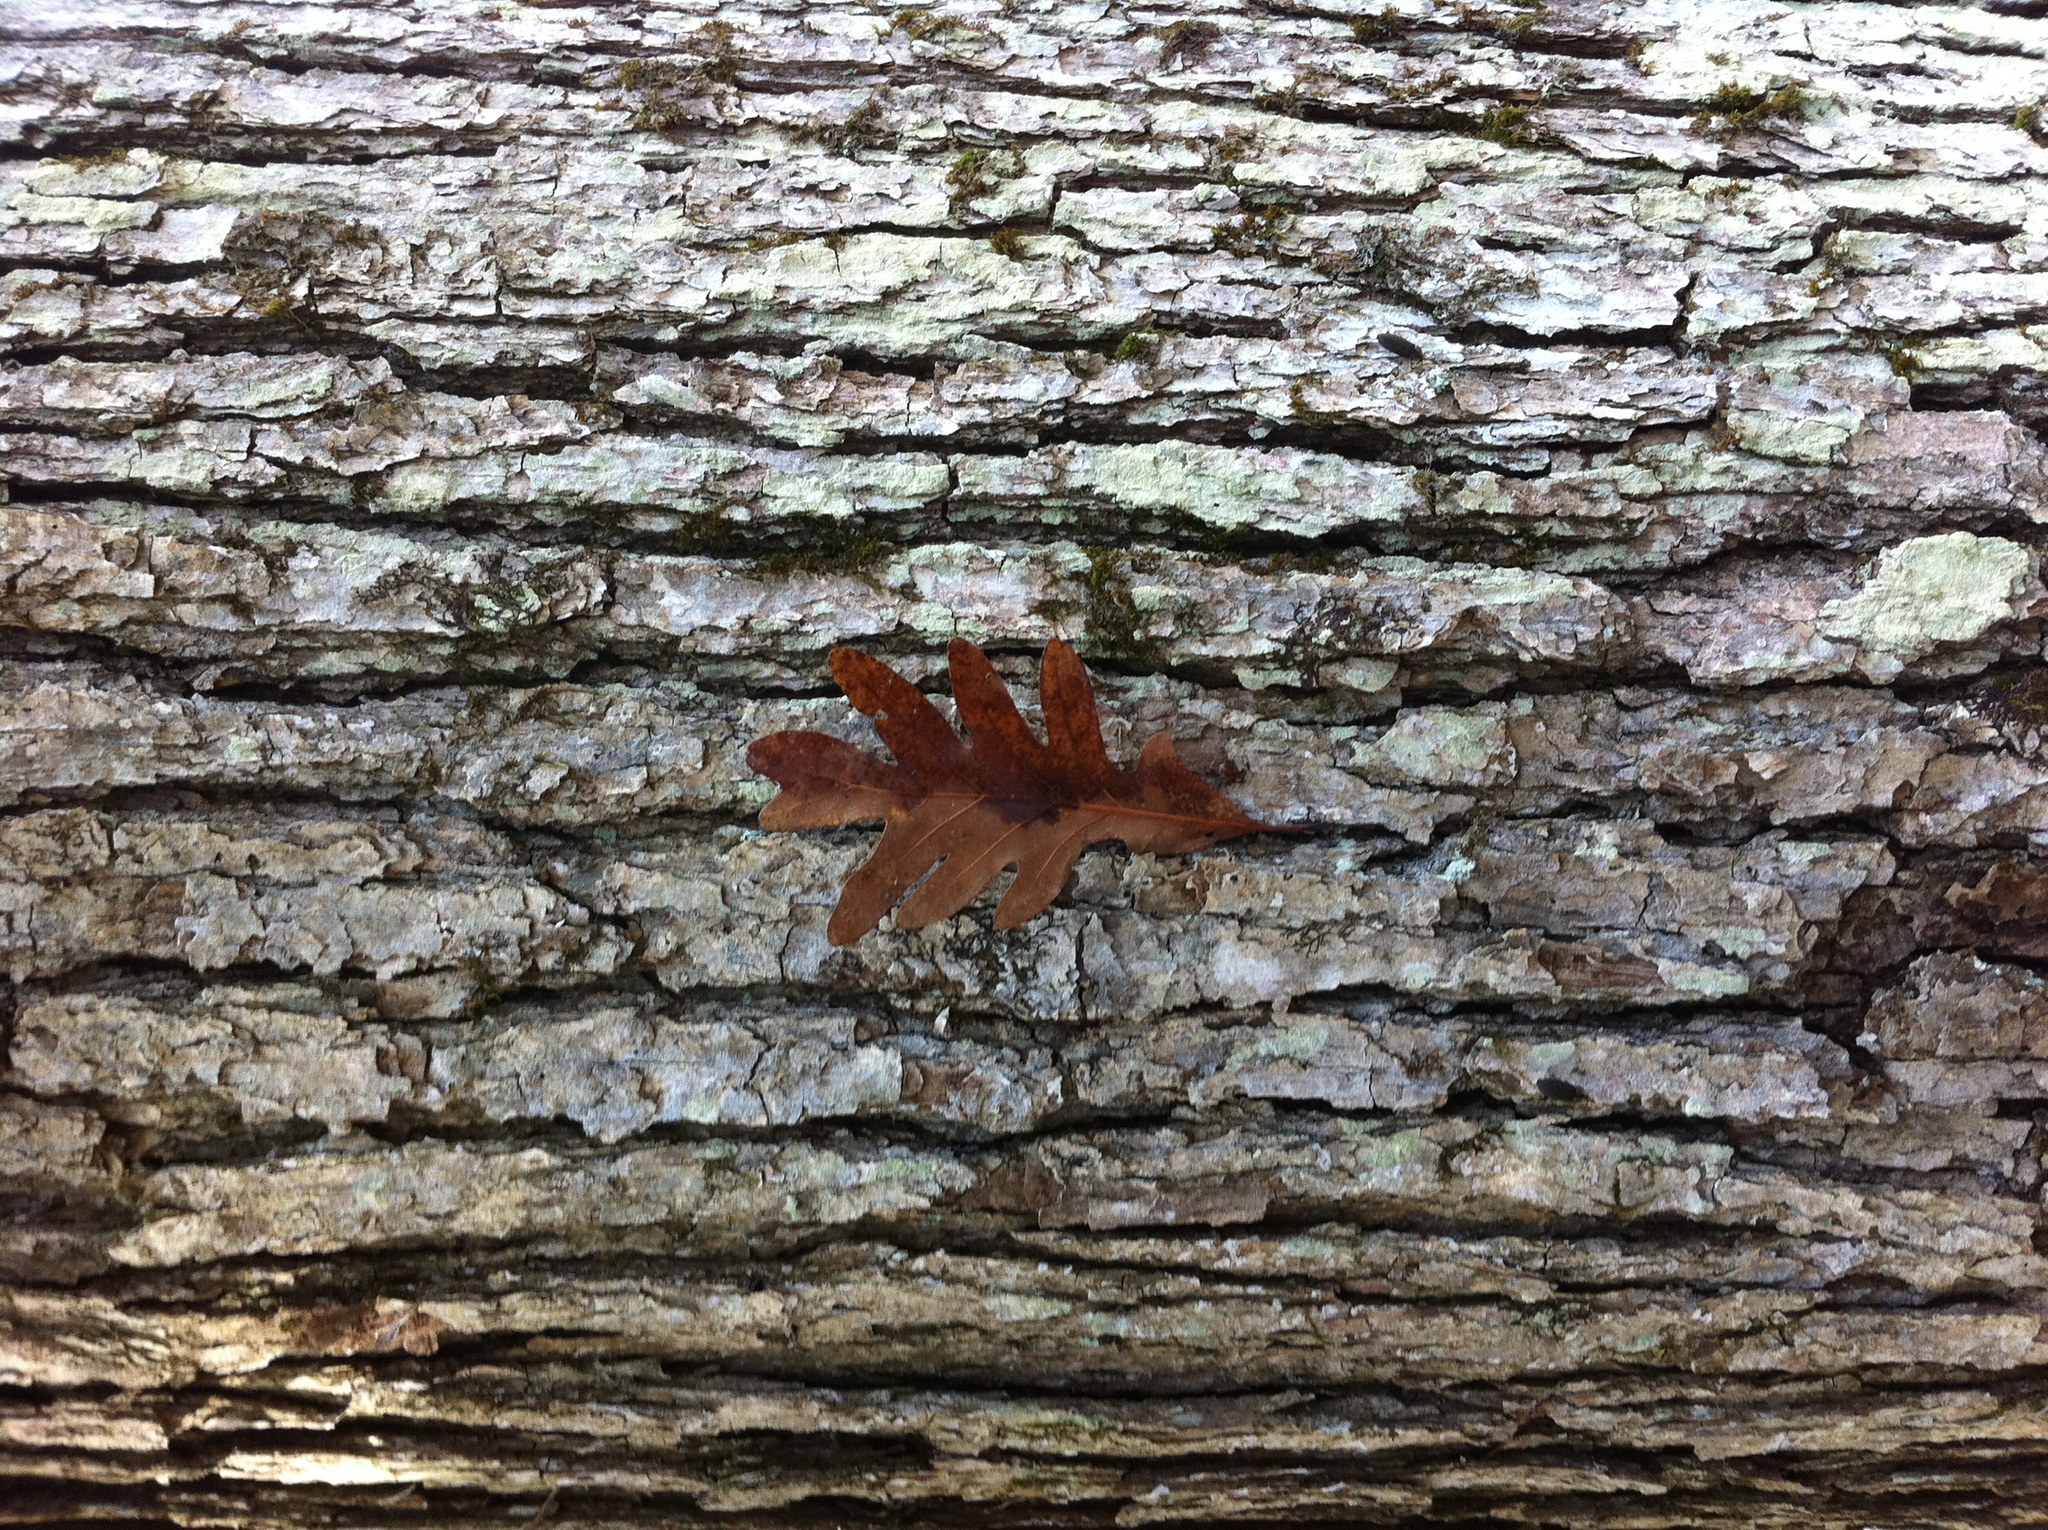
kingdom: Plantae
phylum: Tracheophyta
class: Magnoliopsida
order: Fagales
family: Fagaceae
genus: Quercus
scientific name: Quercus alba
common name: White oak
